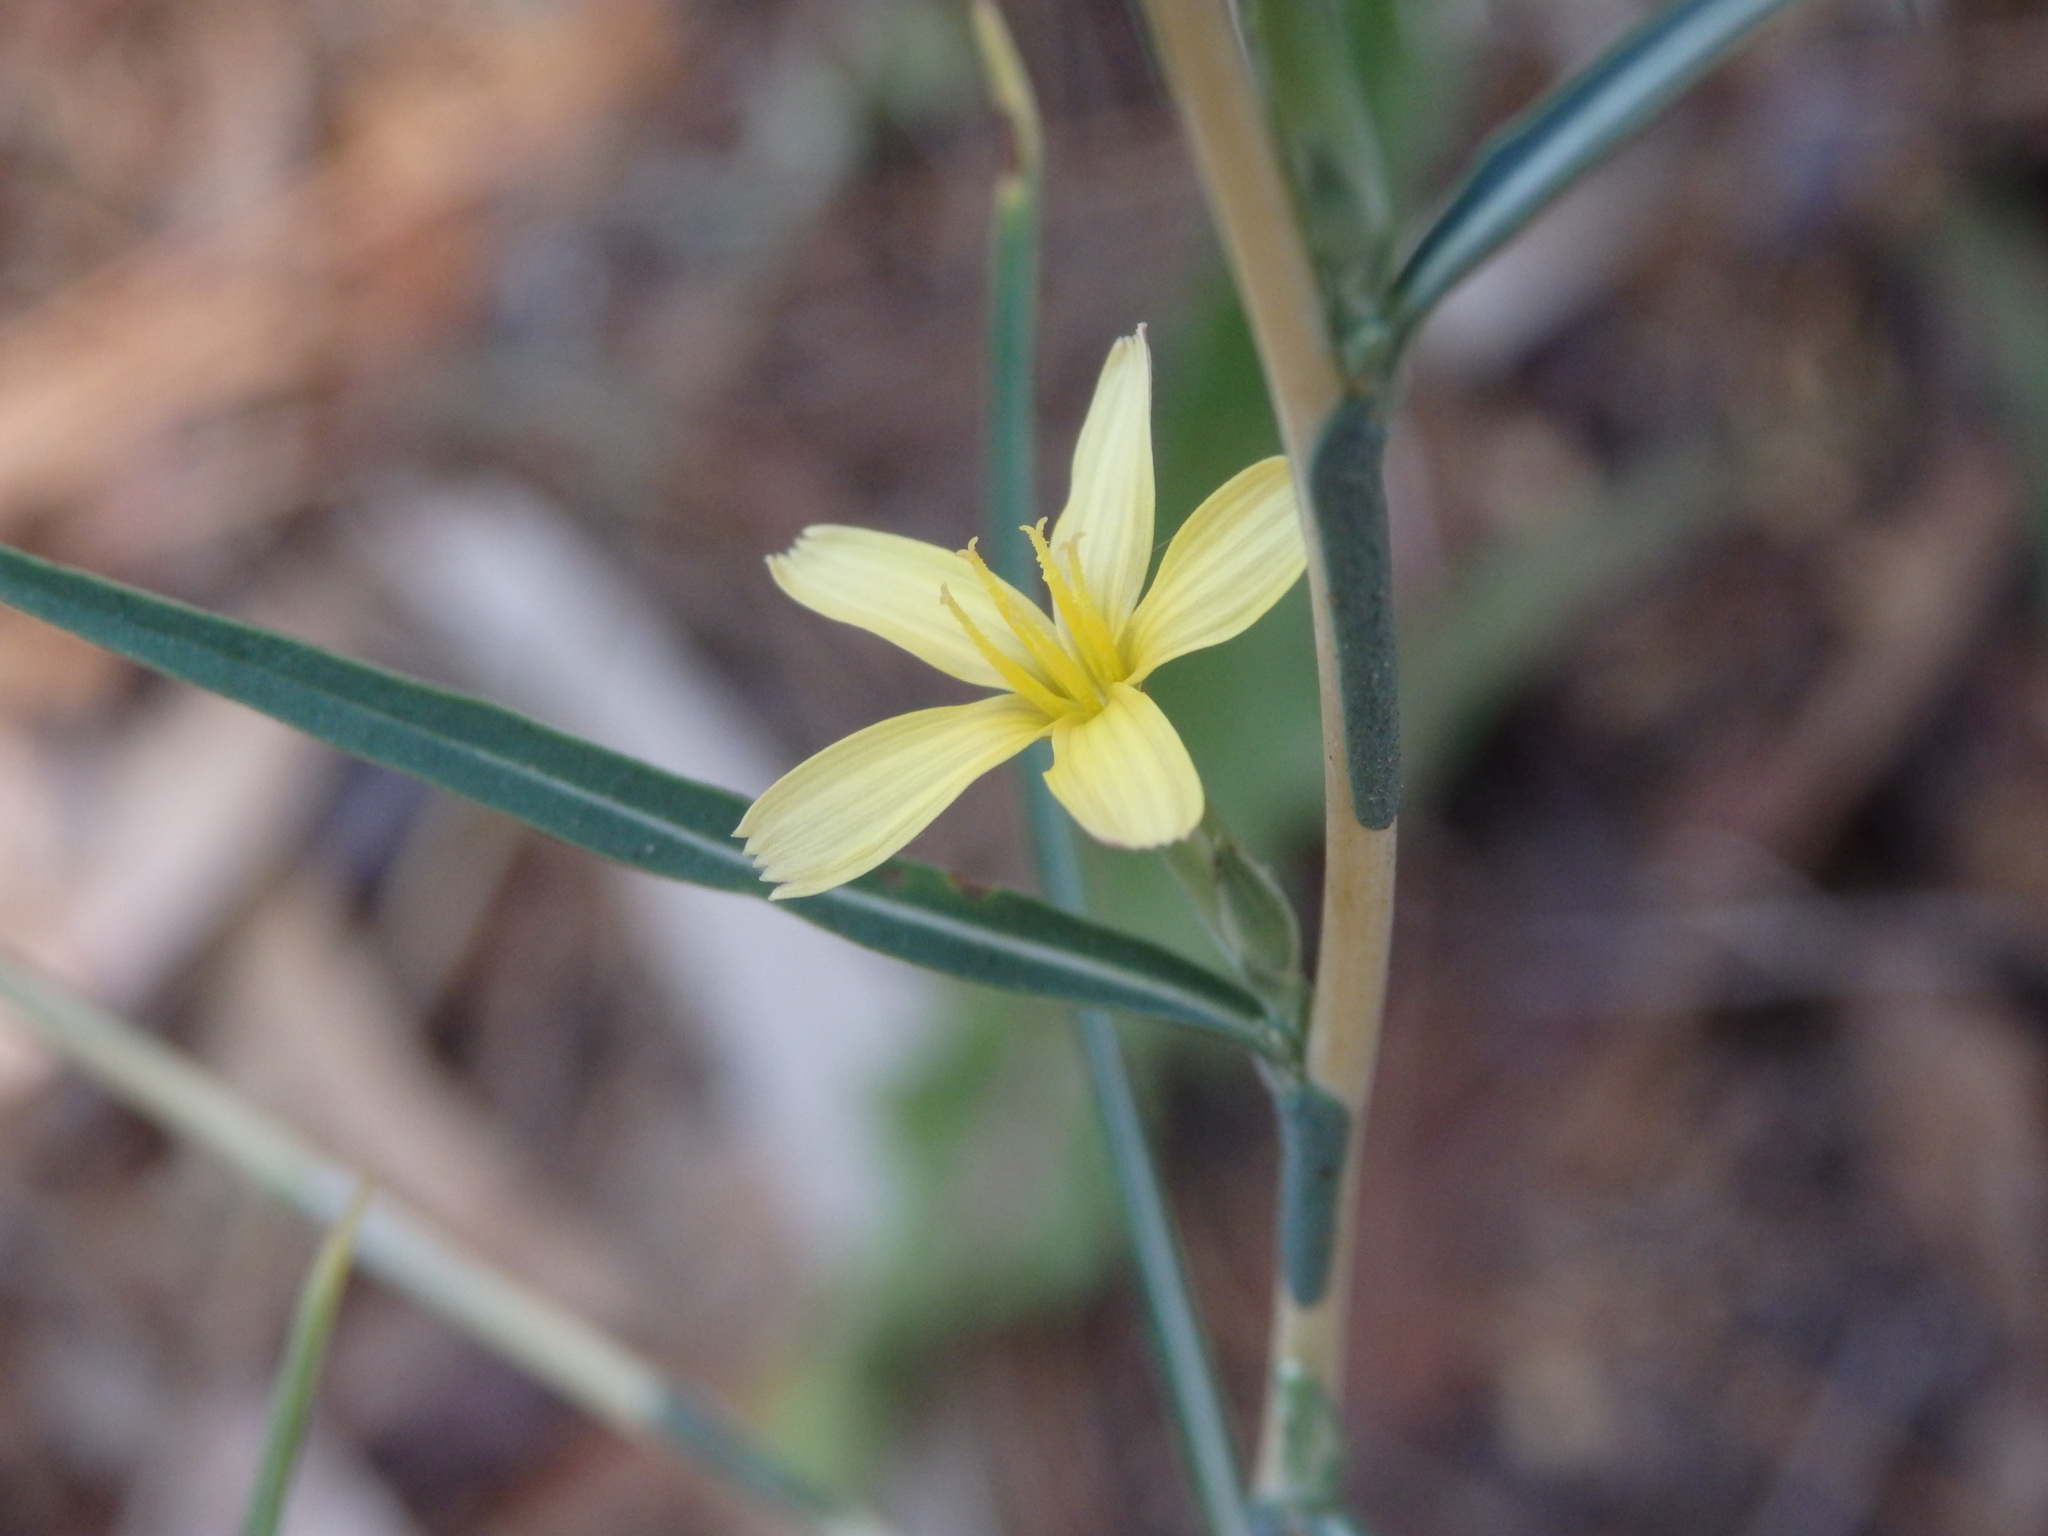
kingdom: Plantae
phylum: Tracheophyta
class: Magnoliopsida
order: Asterales
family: Asteraceae
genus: Lactuca
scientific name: Lactuca viminea
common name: Pliant lettuce
